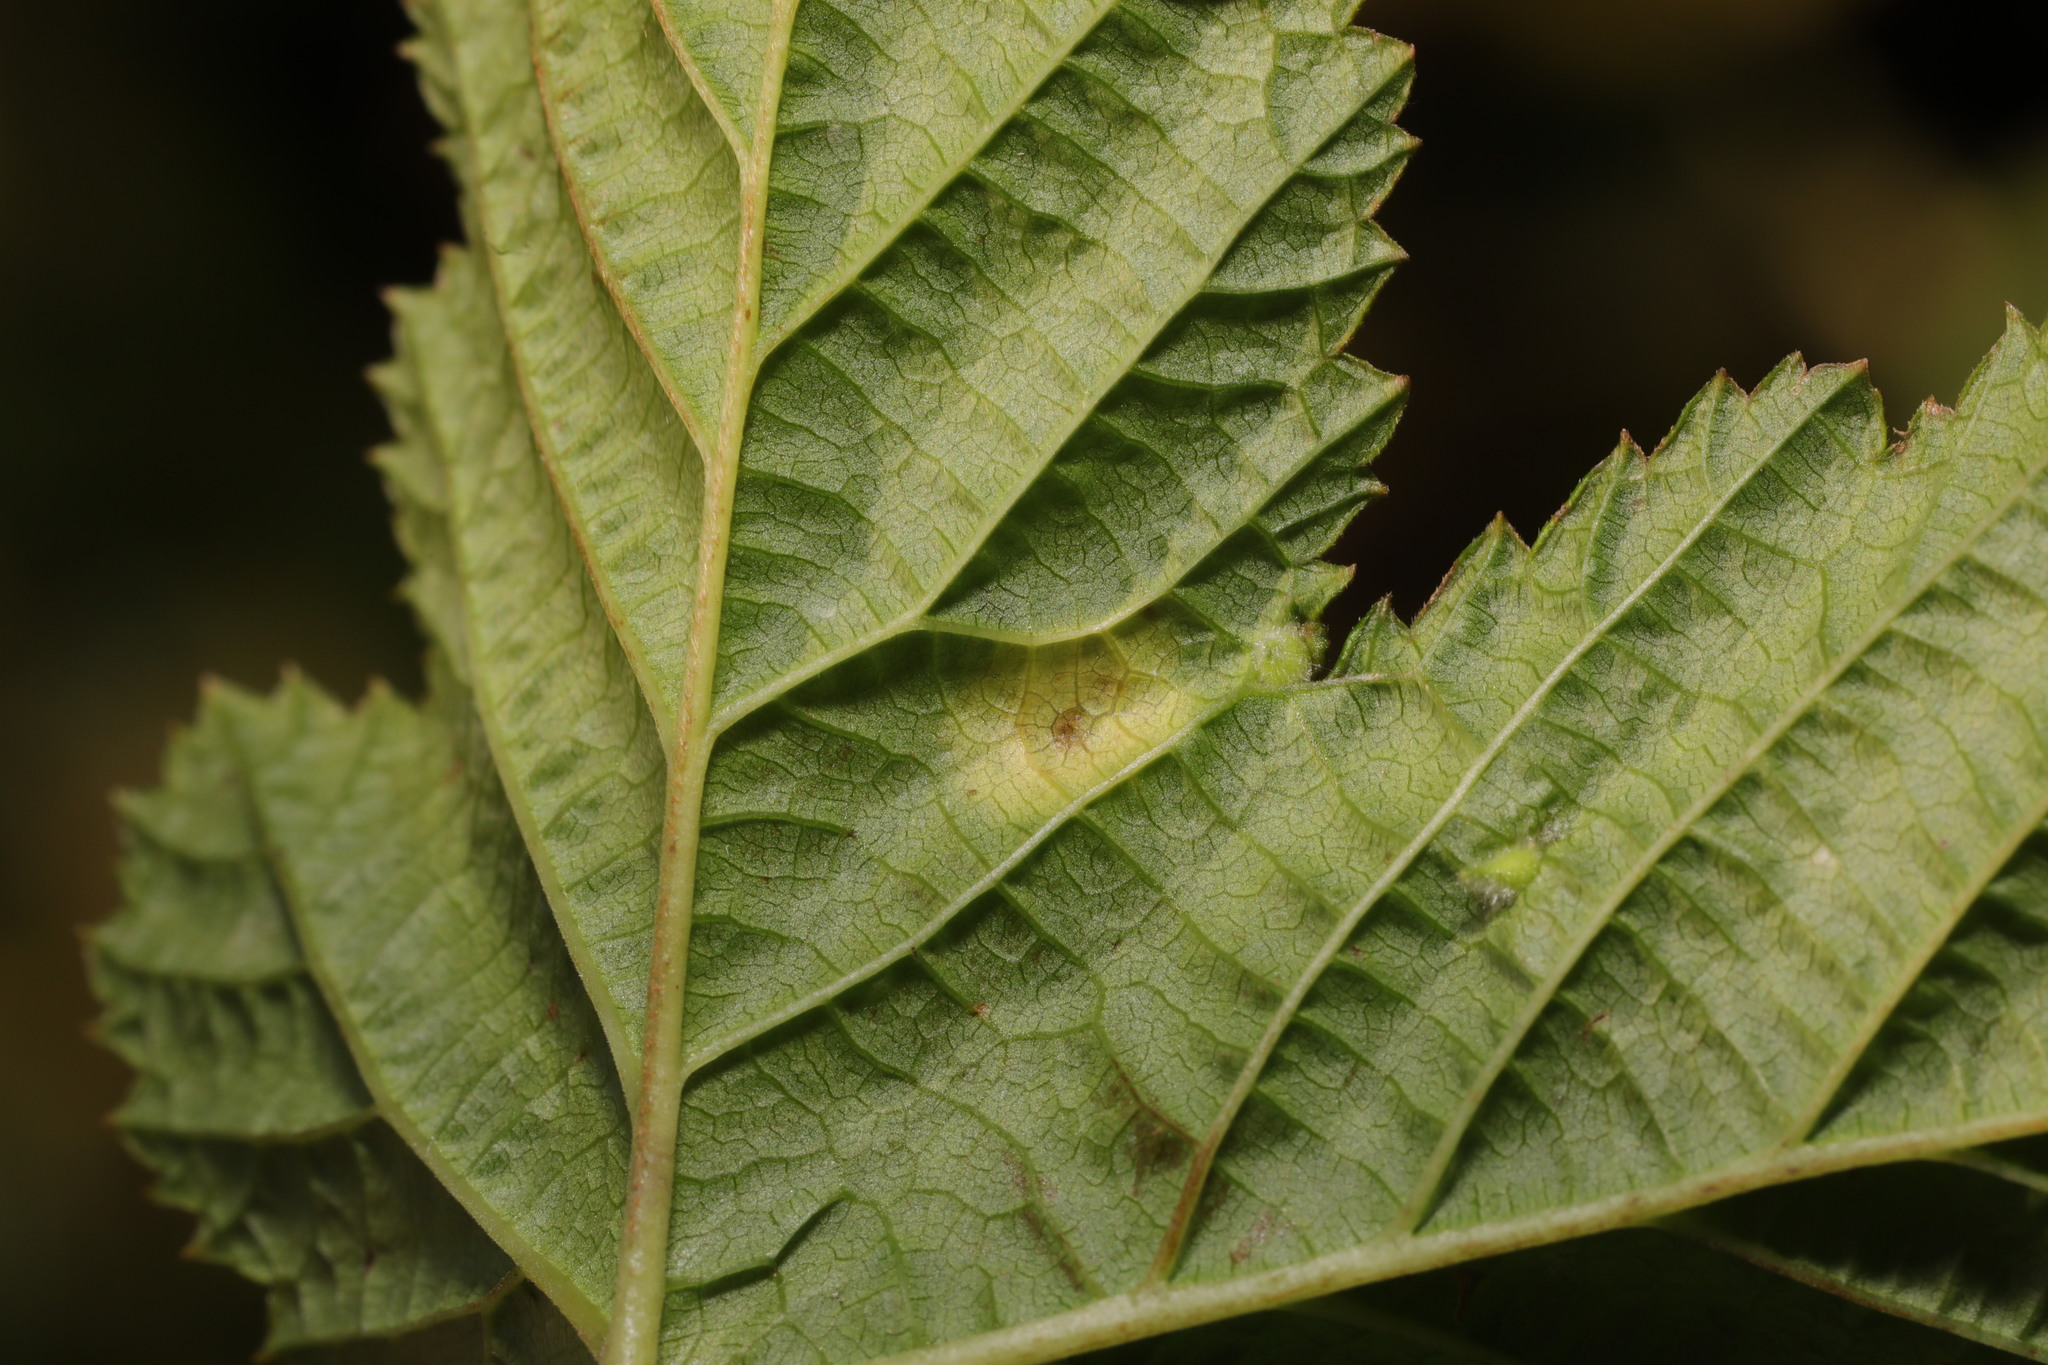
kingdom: Animalia
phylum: Arthropoda
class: Insecta
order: Diptera
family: Cecidomyiidae
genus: Dasineura
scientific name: Dasineura pustulans
